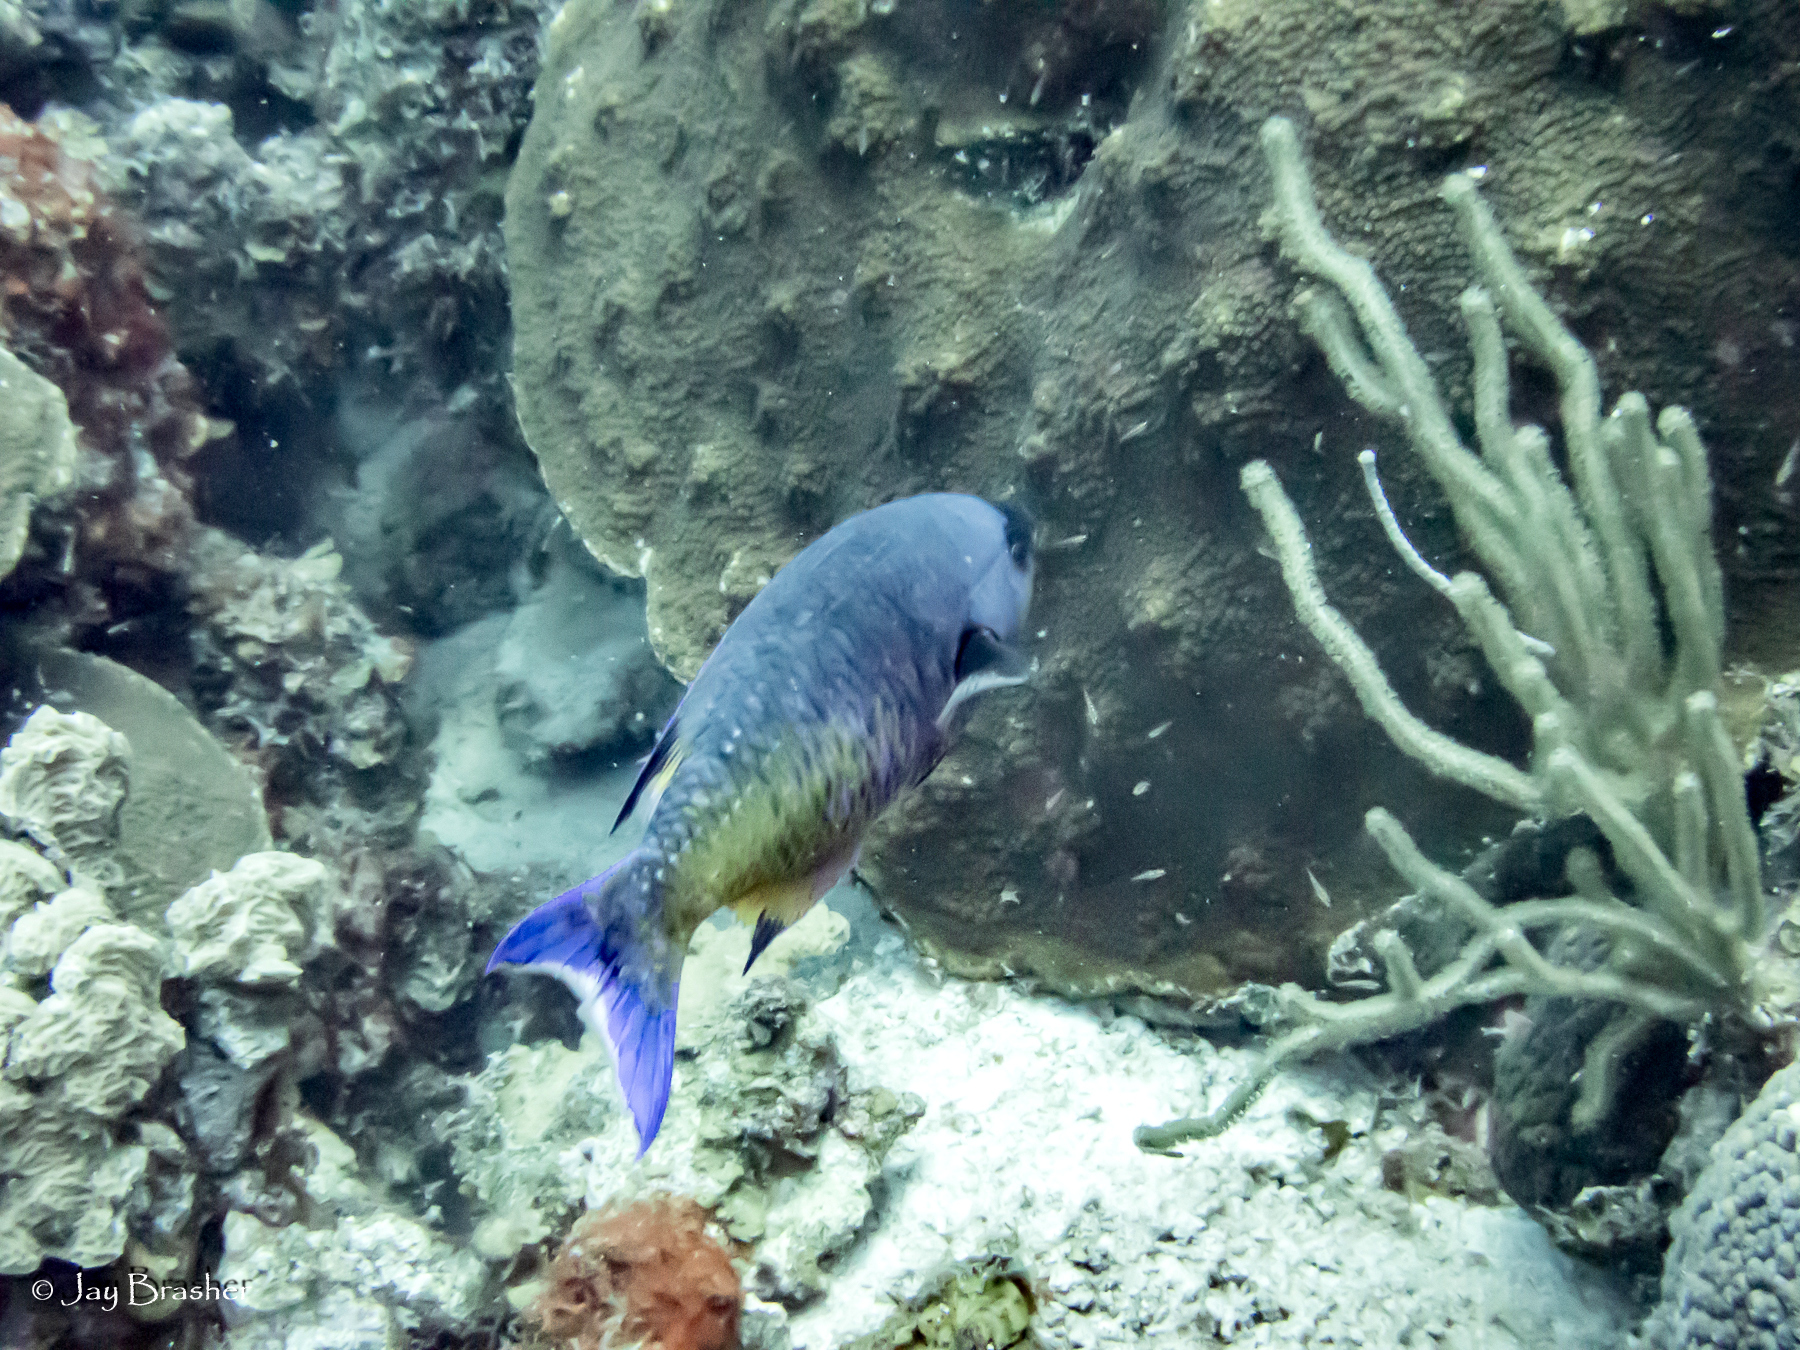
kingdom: Animalia
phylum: Chordata
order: Perciformes
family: Labridae
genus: Bodianus
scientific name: Bodianus
